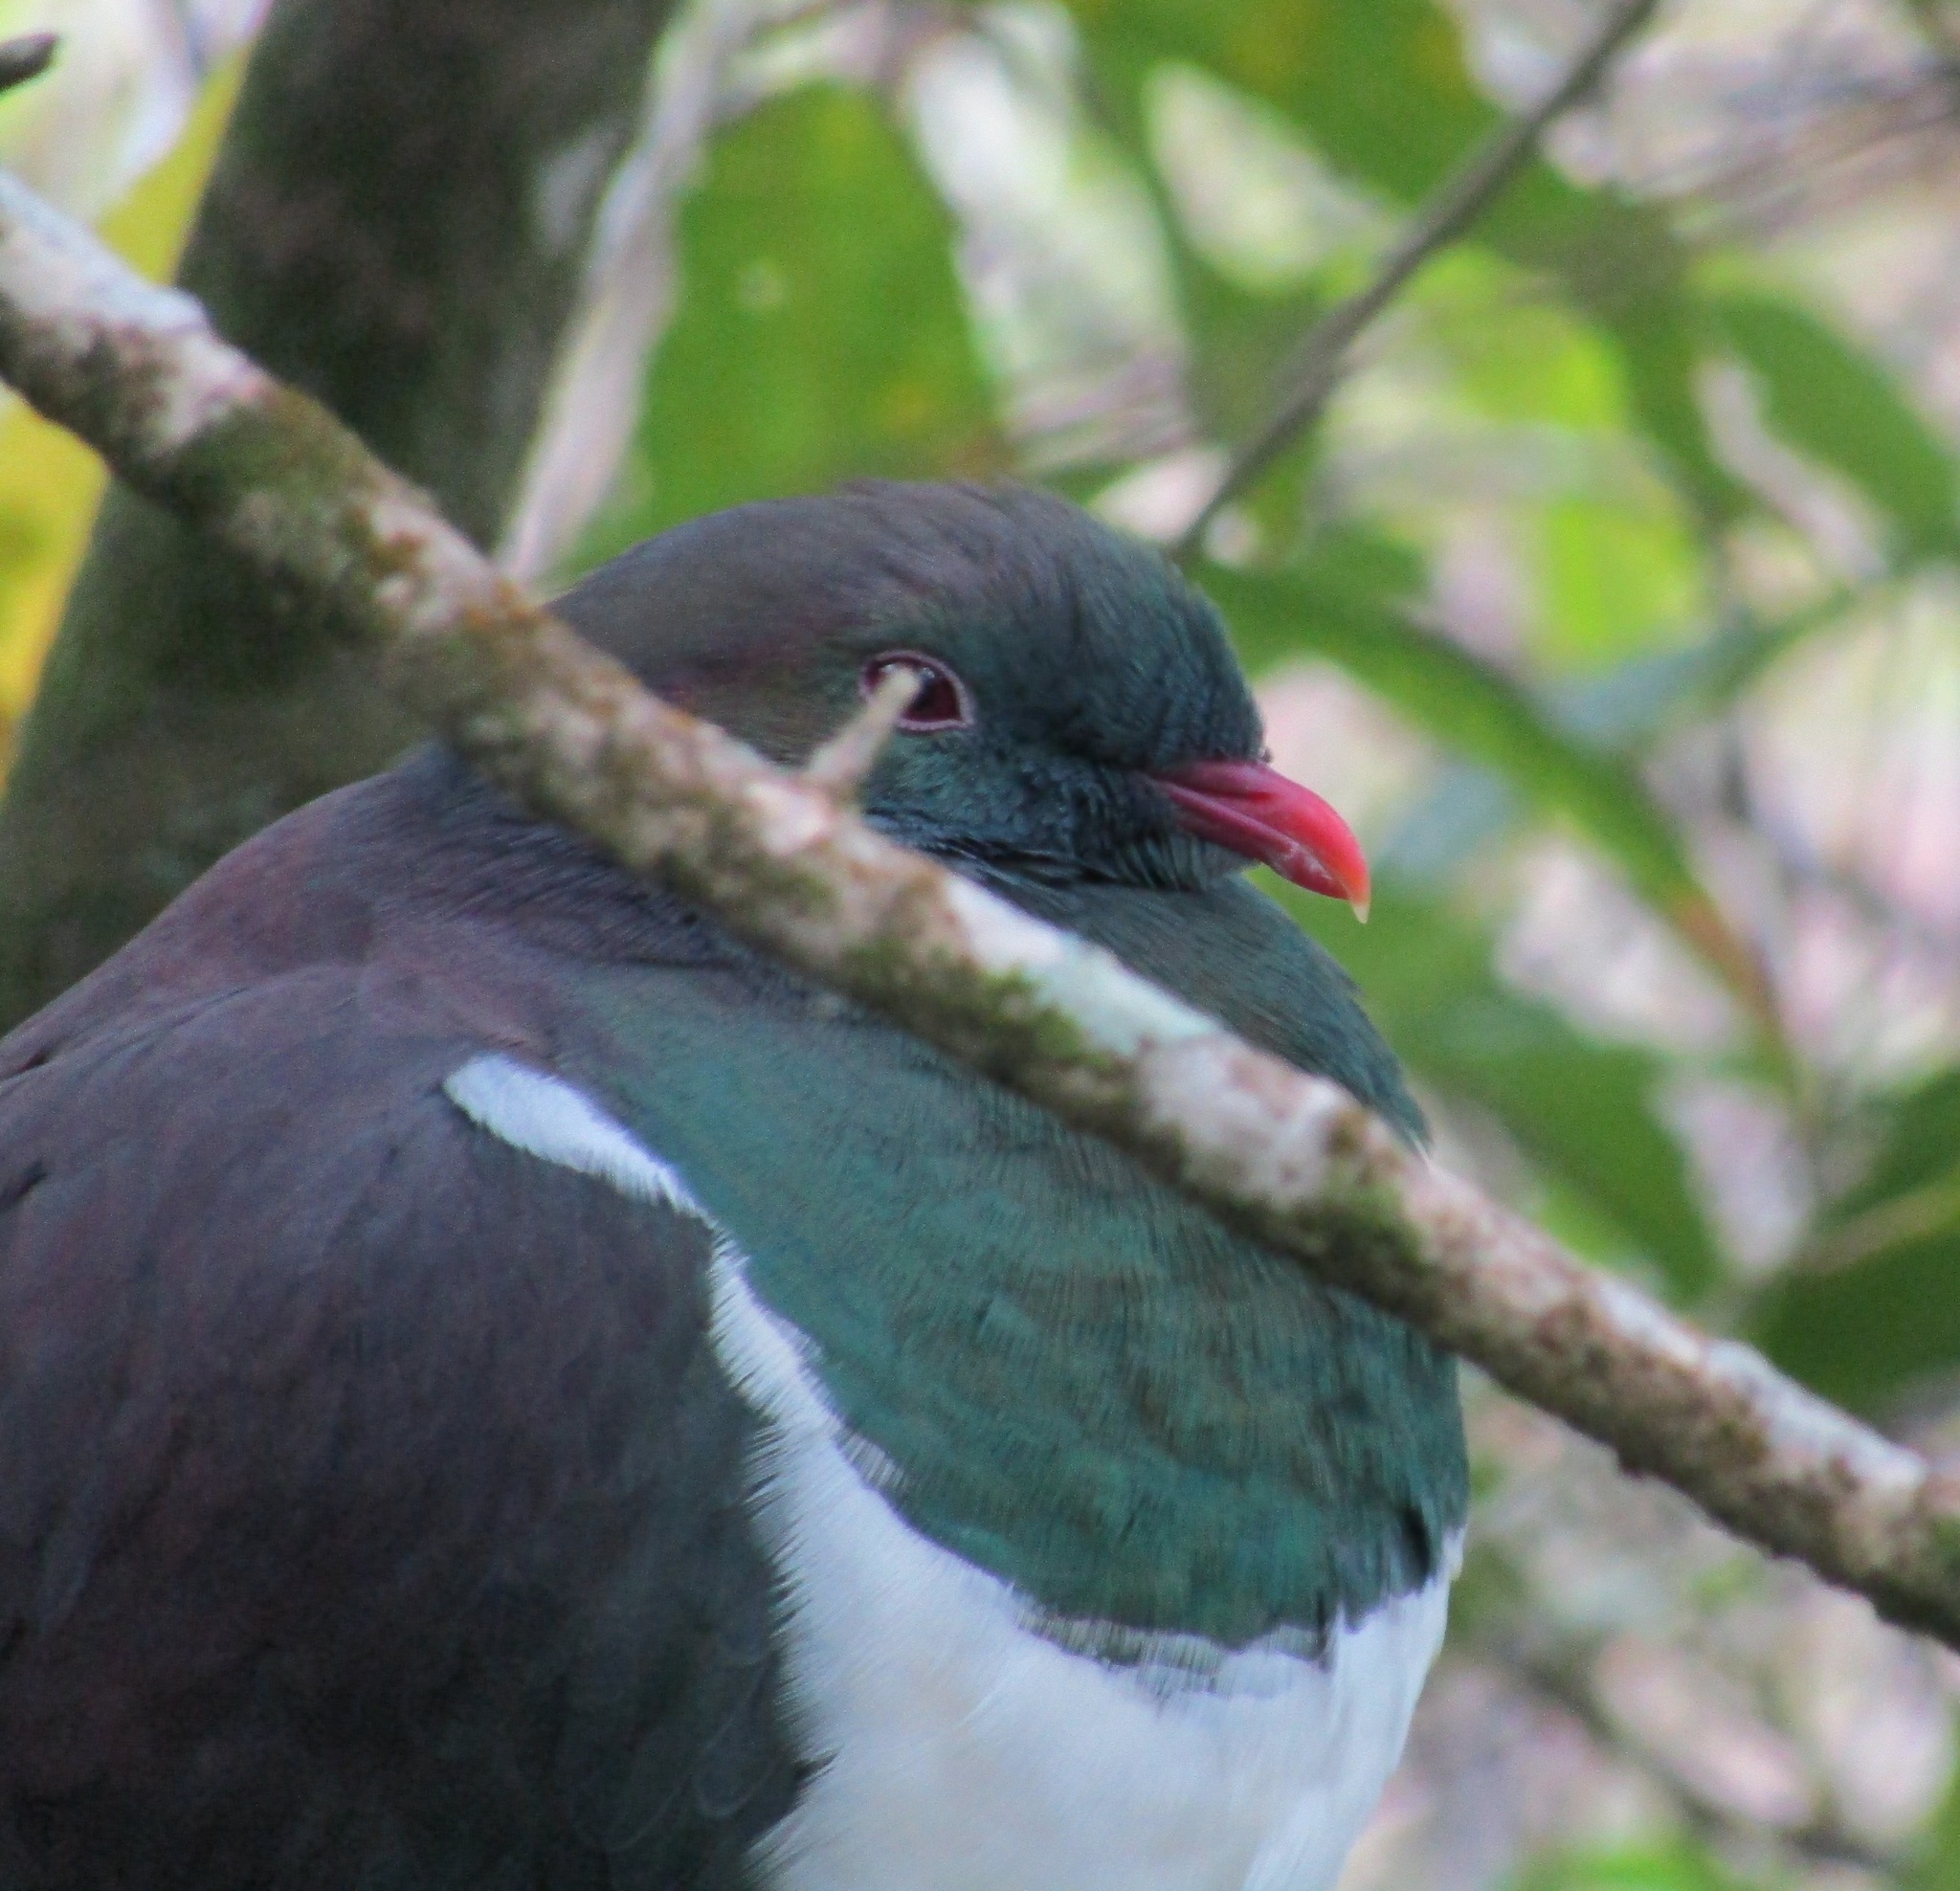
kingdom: Animalia
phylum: Chordata
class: Aves
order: Columbiformes
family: Columbidae
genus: Hemiphaga
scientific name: Hemiphaga novaeseelandiae
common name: New zealand pigeon
